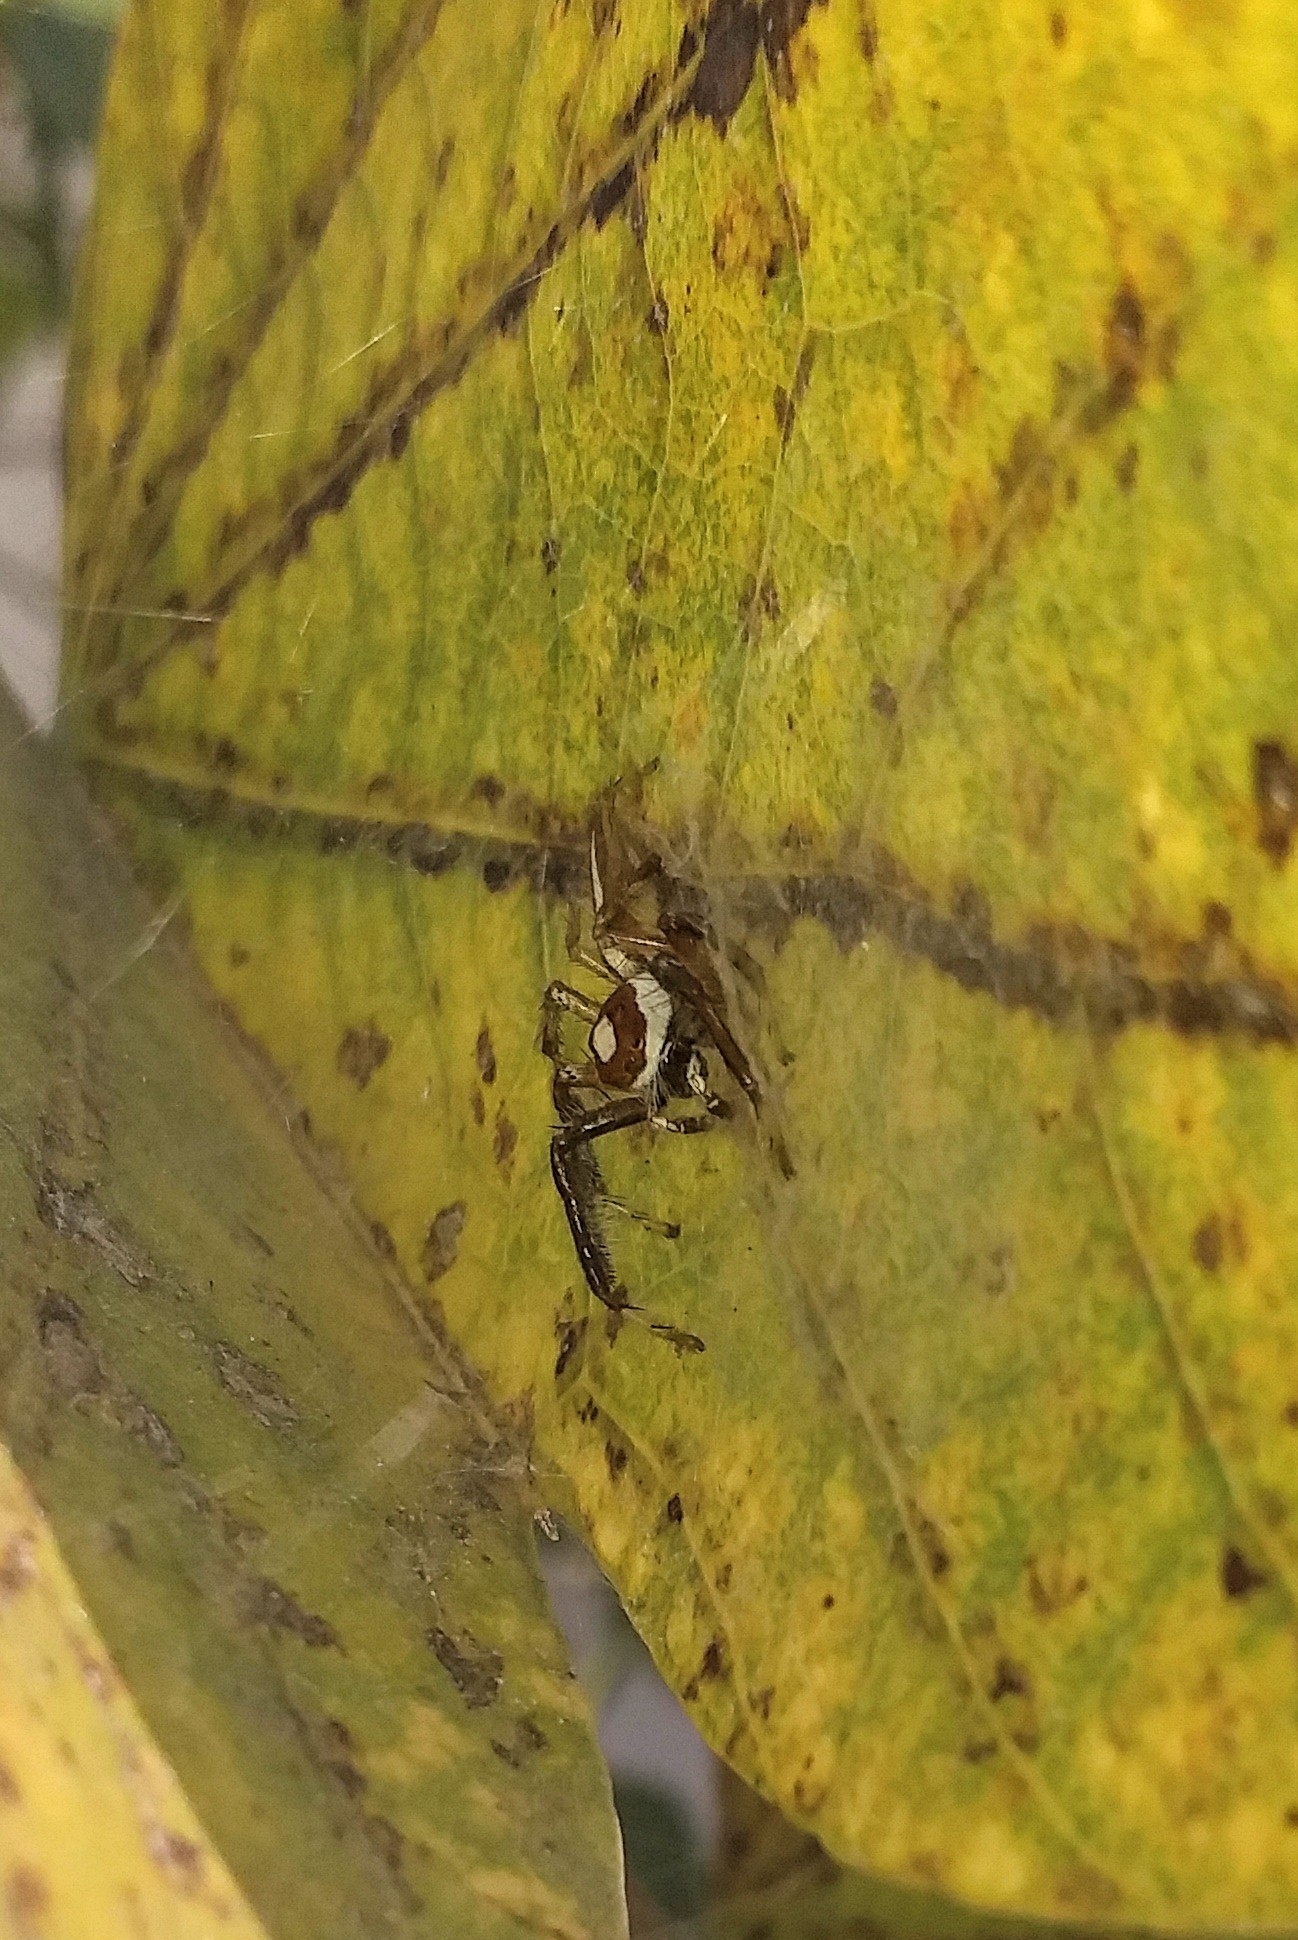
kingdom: Animalia
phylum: Arthropoda
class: Arachnida
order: Araneae
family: Salticidae
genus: Telamonia
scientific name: Telamonia dimidiata
